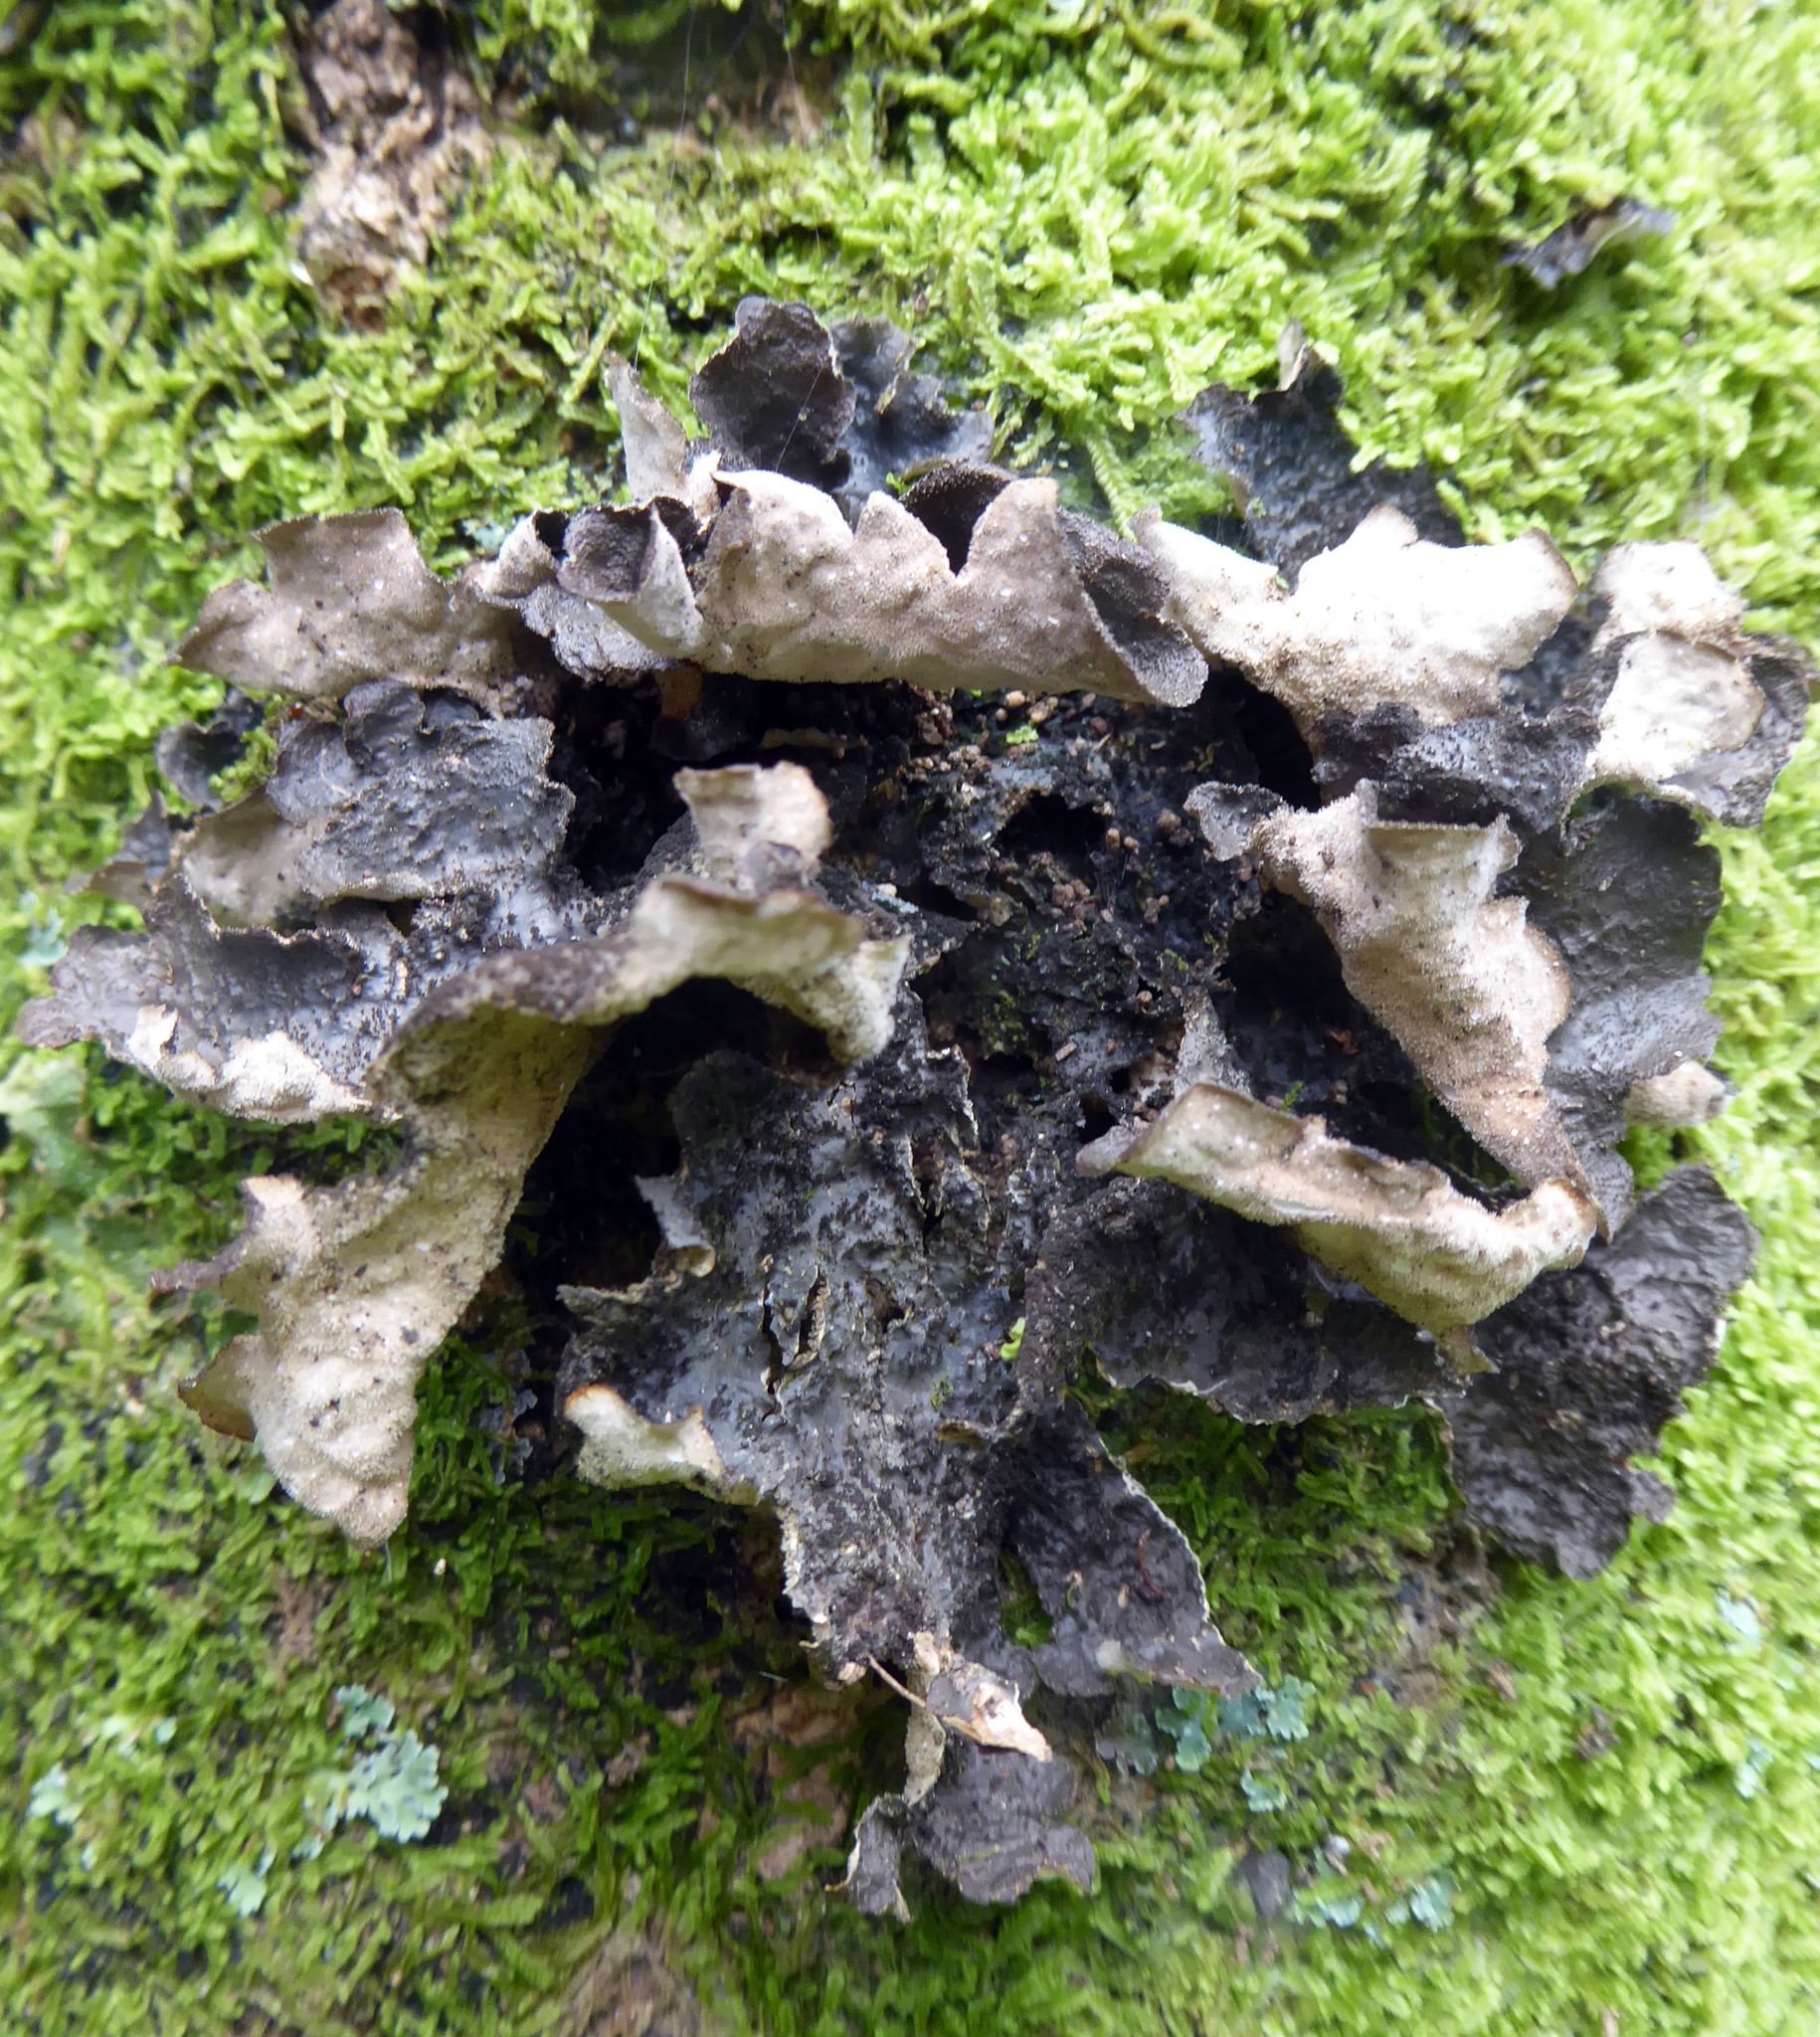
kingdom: Fungi
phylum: Ascomycota
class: Lecanoromycetes
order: Peltigerales
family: Lobariaceae
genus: Sticta
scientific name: Sticta fuliginosa
